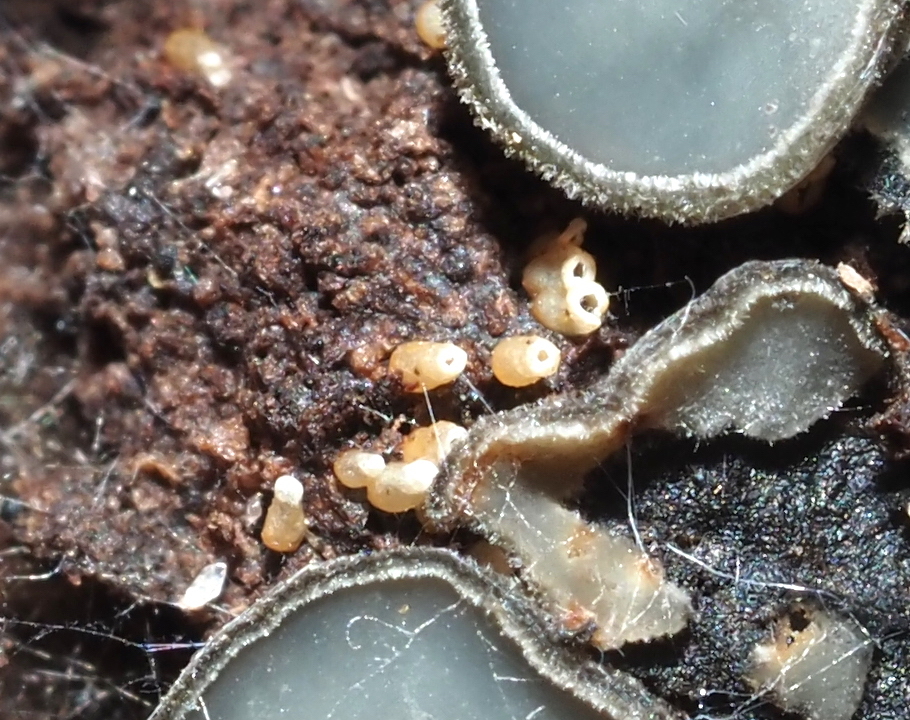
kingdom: Fungi
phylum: Basidiomycota
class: Agaricomycetes
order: Agaricales
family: Marasmiaceae
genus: Henningsomyces
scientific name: Henningsomyces candidus
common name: White tubelet
